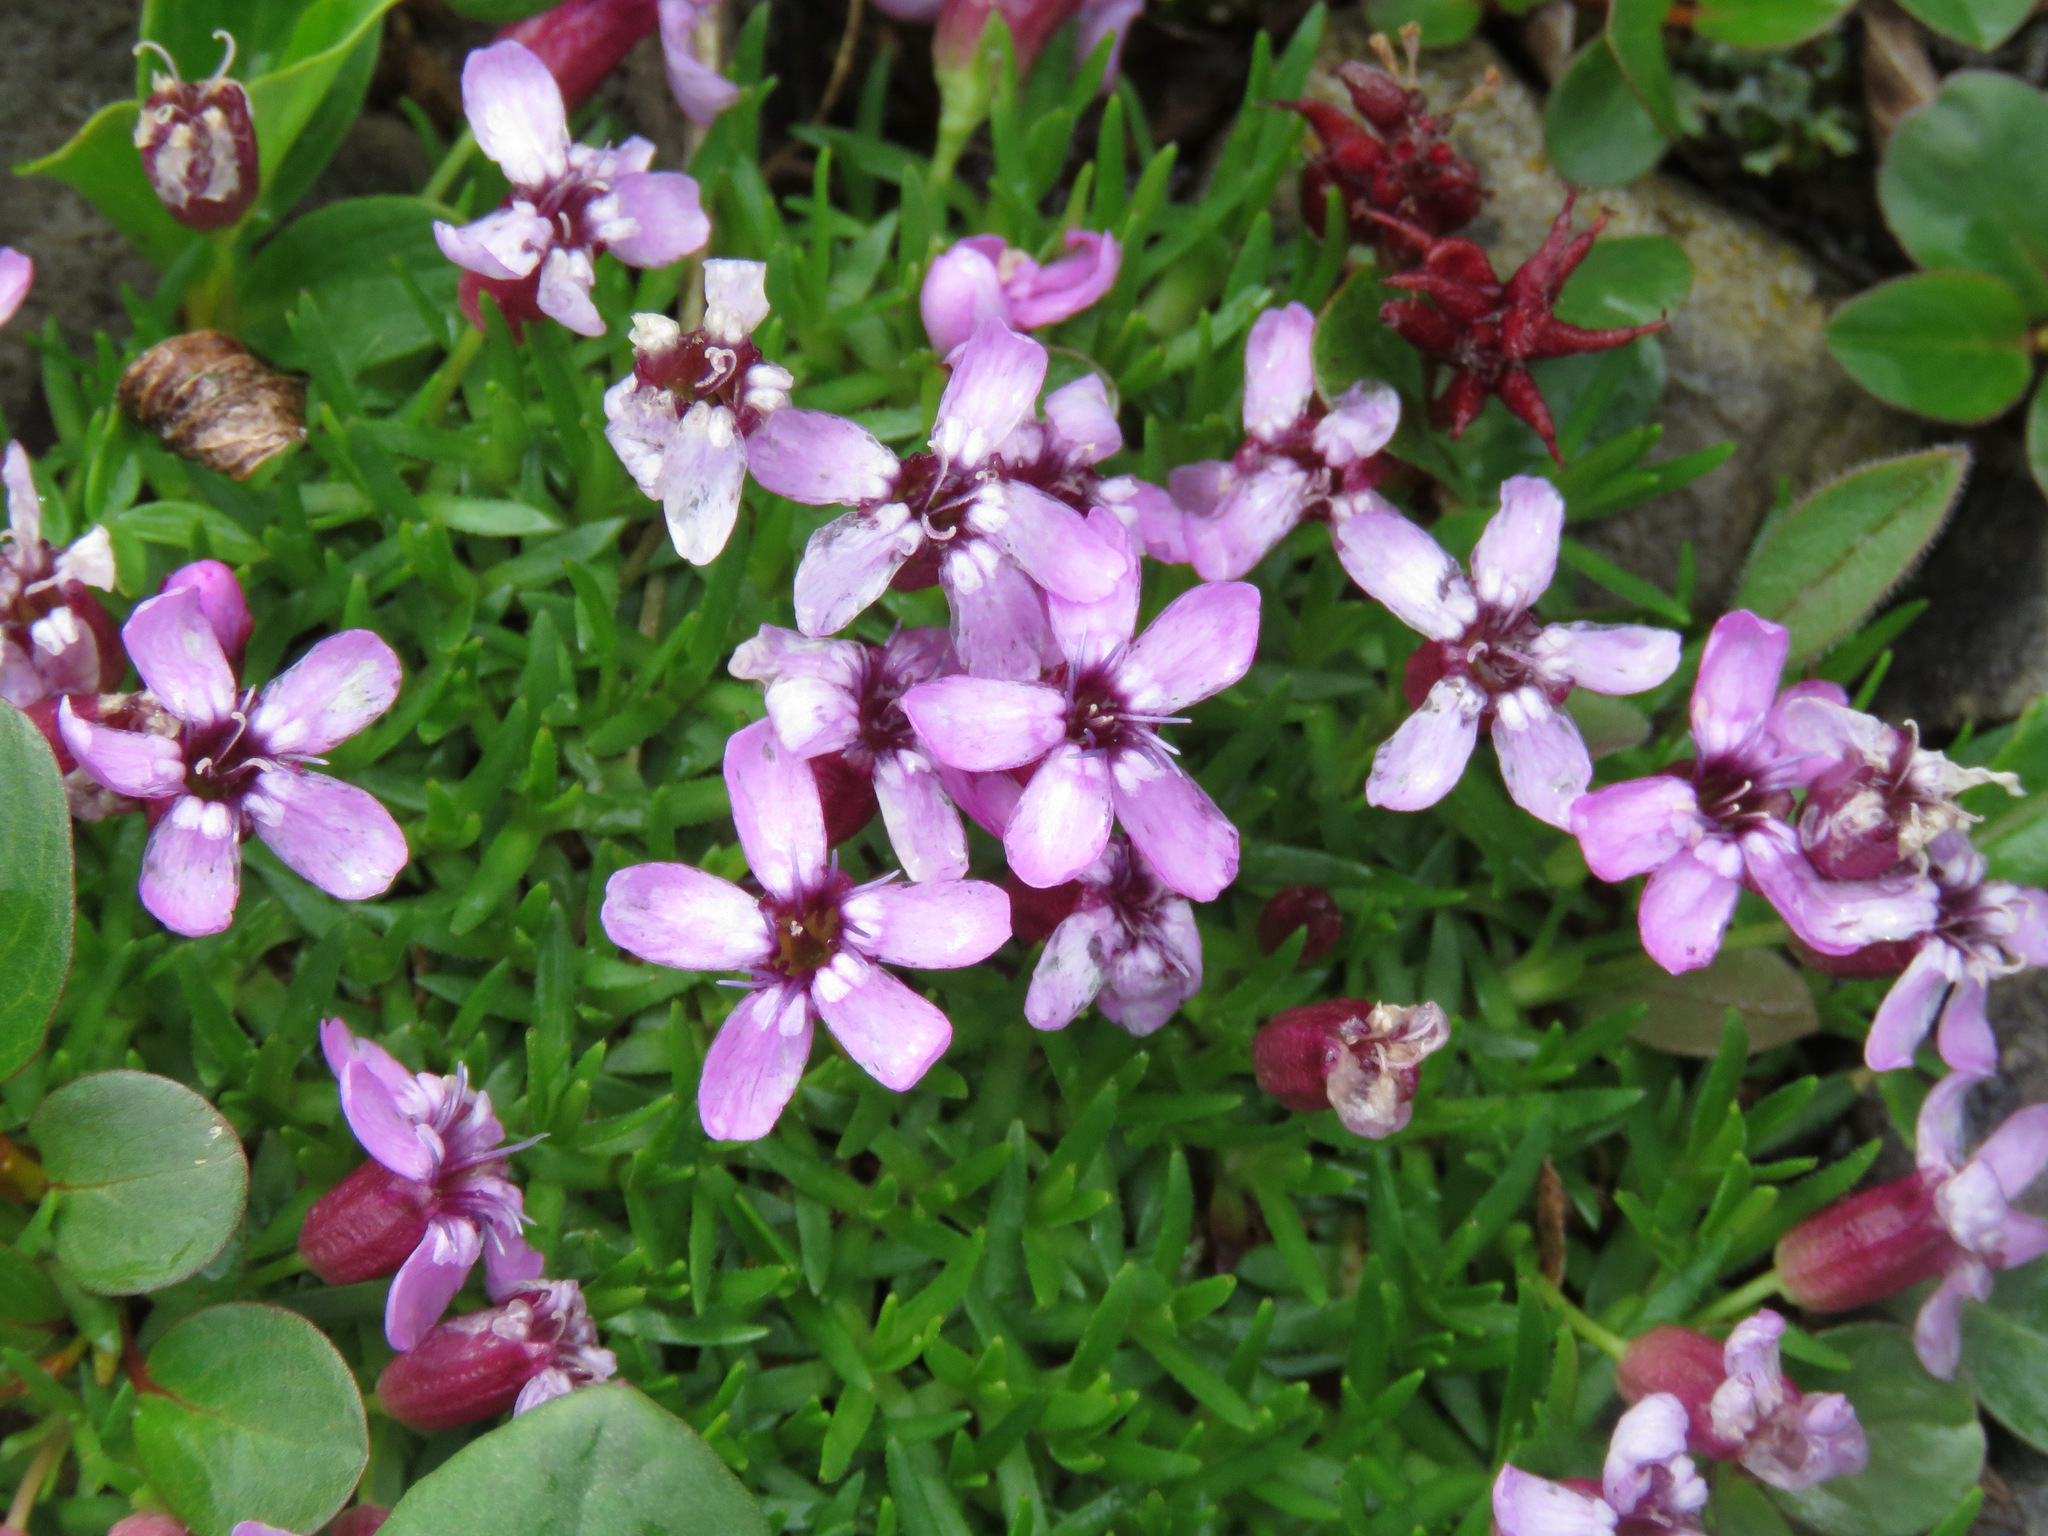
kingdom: Plantae
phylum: Tracheophyta
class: Magnoliopsida
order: Caryophyllales
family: Caryophyllaceae
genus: Silene
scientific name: Silene acaulis
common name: Moss campion
